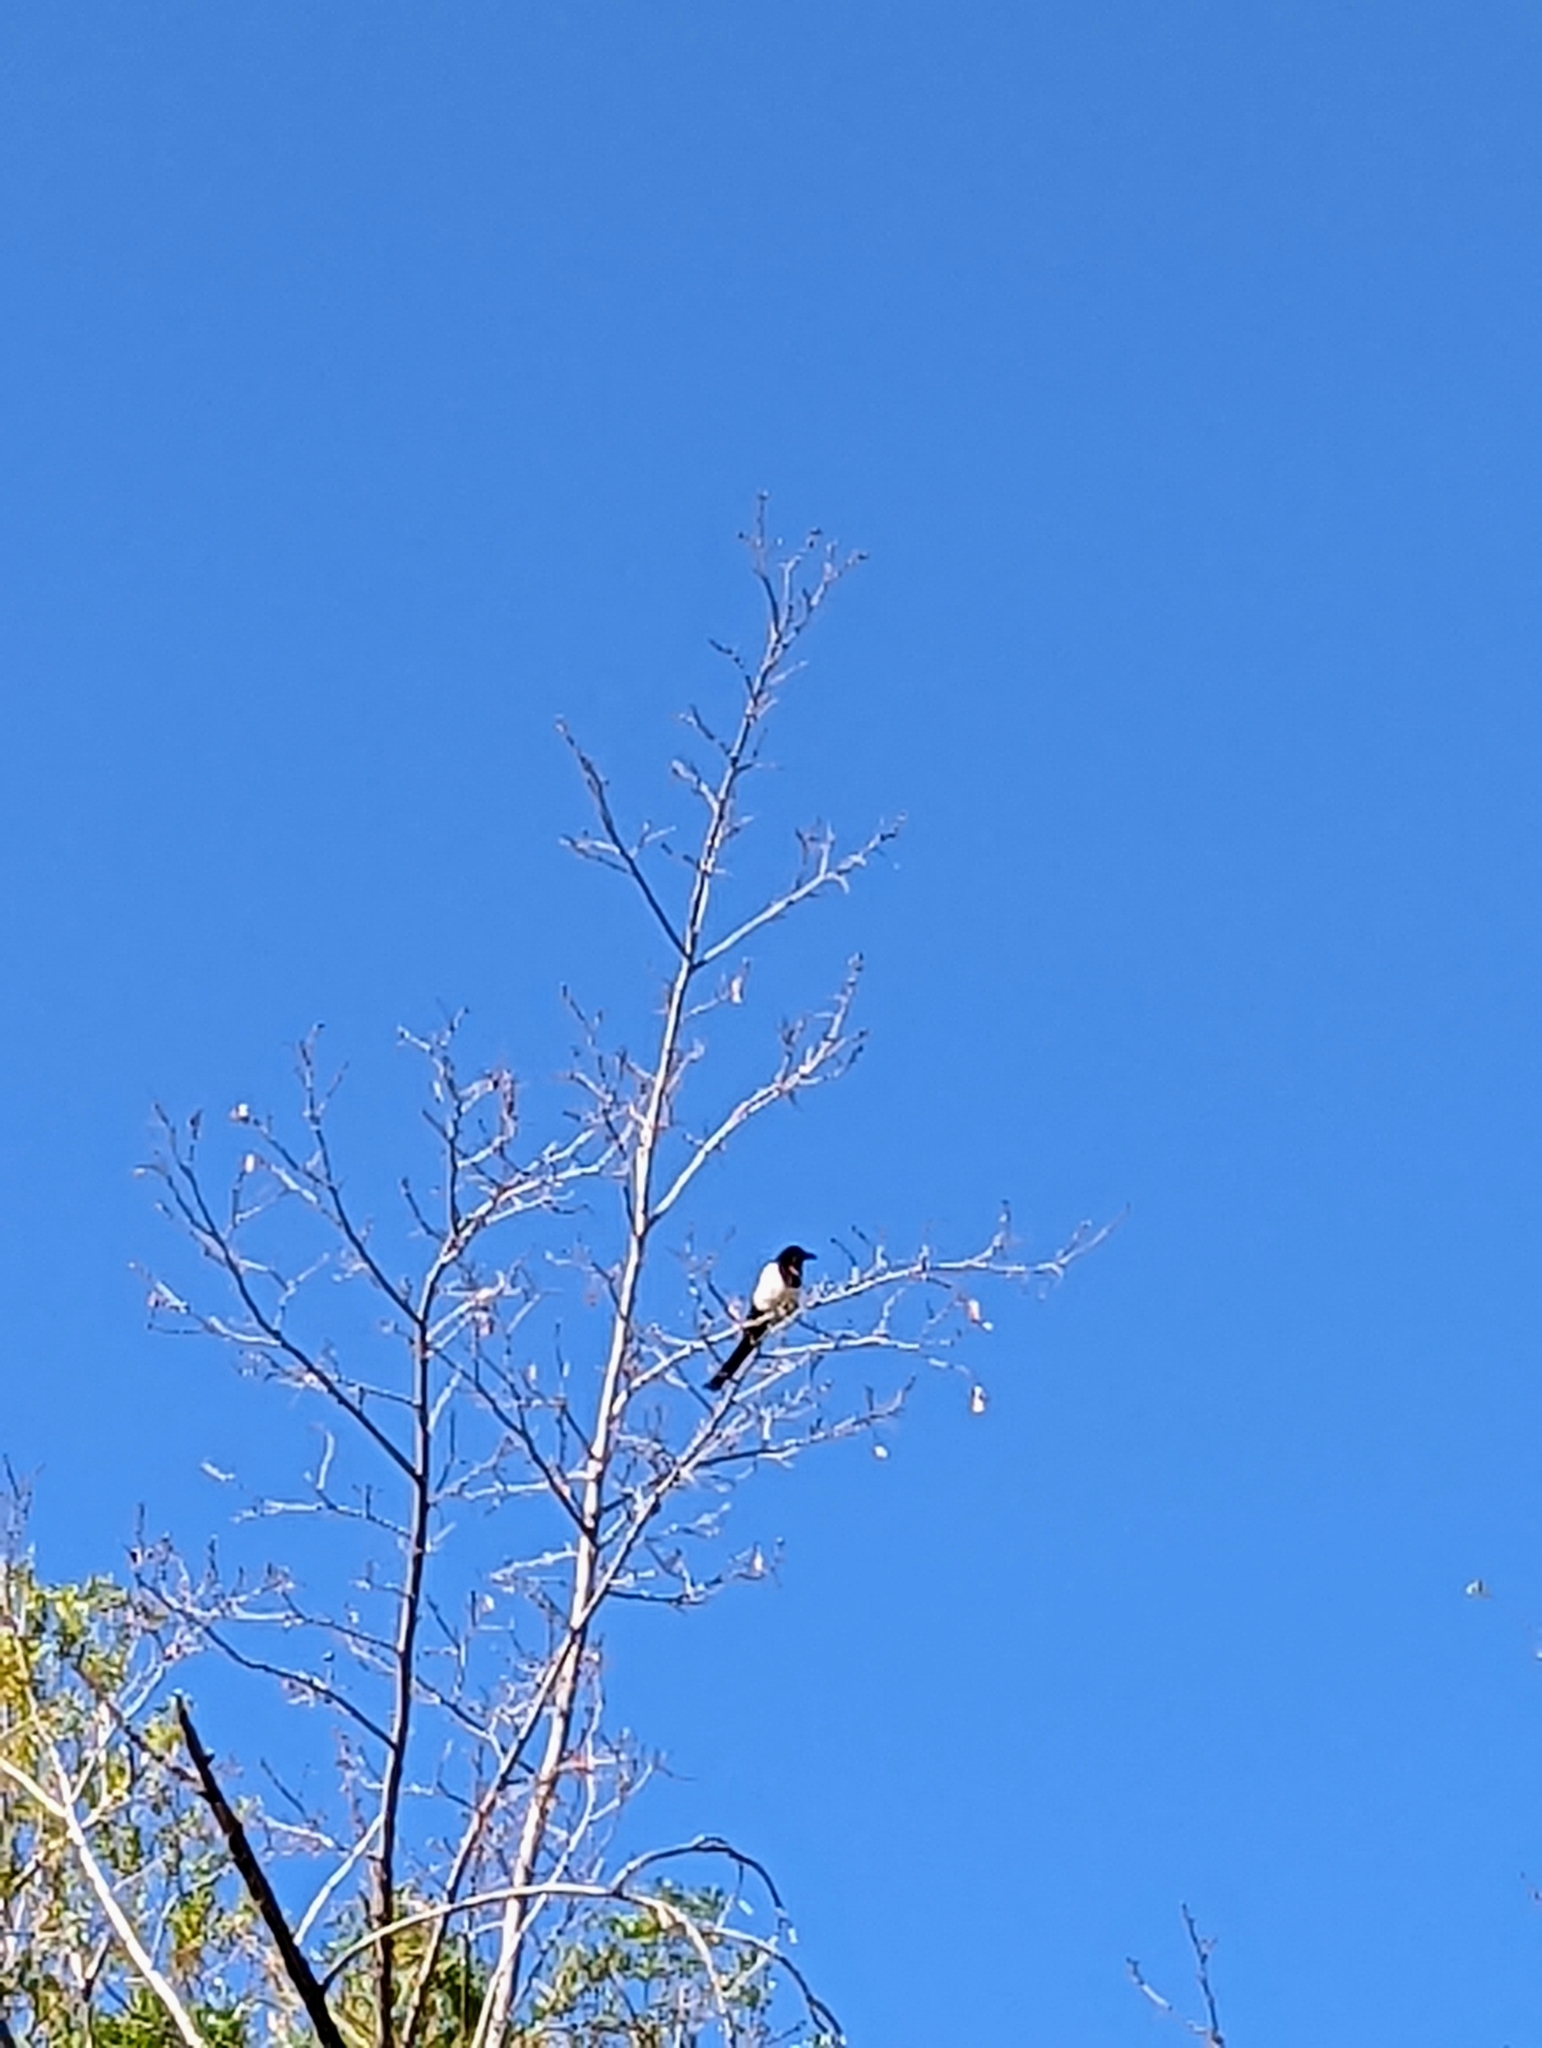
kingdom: Animalia
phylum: Chordata
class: Aves
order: Passeriformes
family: Corvidae
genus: Pica
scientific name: Pica hudsonia
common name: Black-billed magpie
